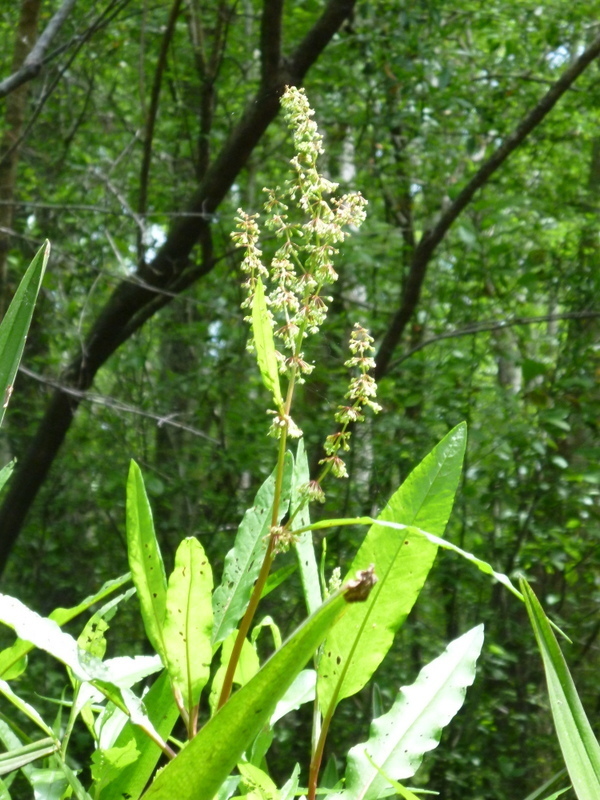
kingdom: Plantae
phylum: Tracheophyta
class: Magnoliopsida
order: Caryophyllales
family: Polygonaceae
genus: Rumex
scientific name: Rumex verticillatus
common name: Swamp dock
